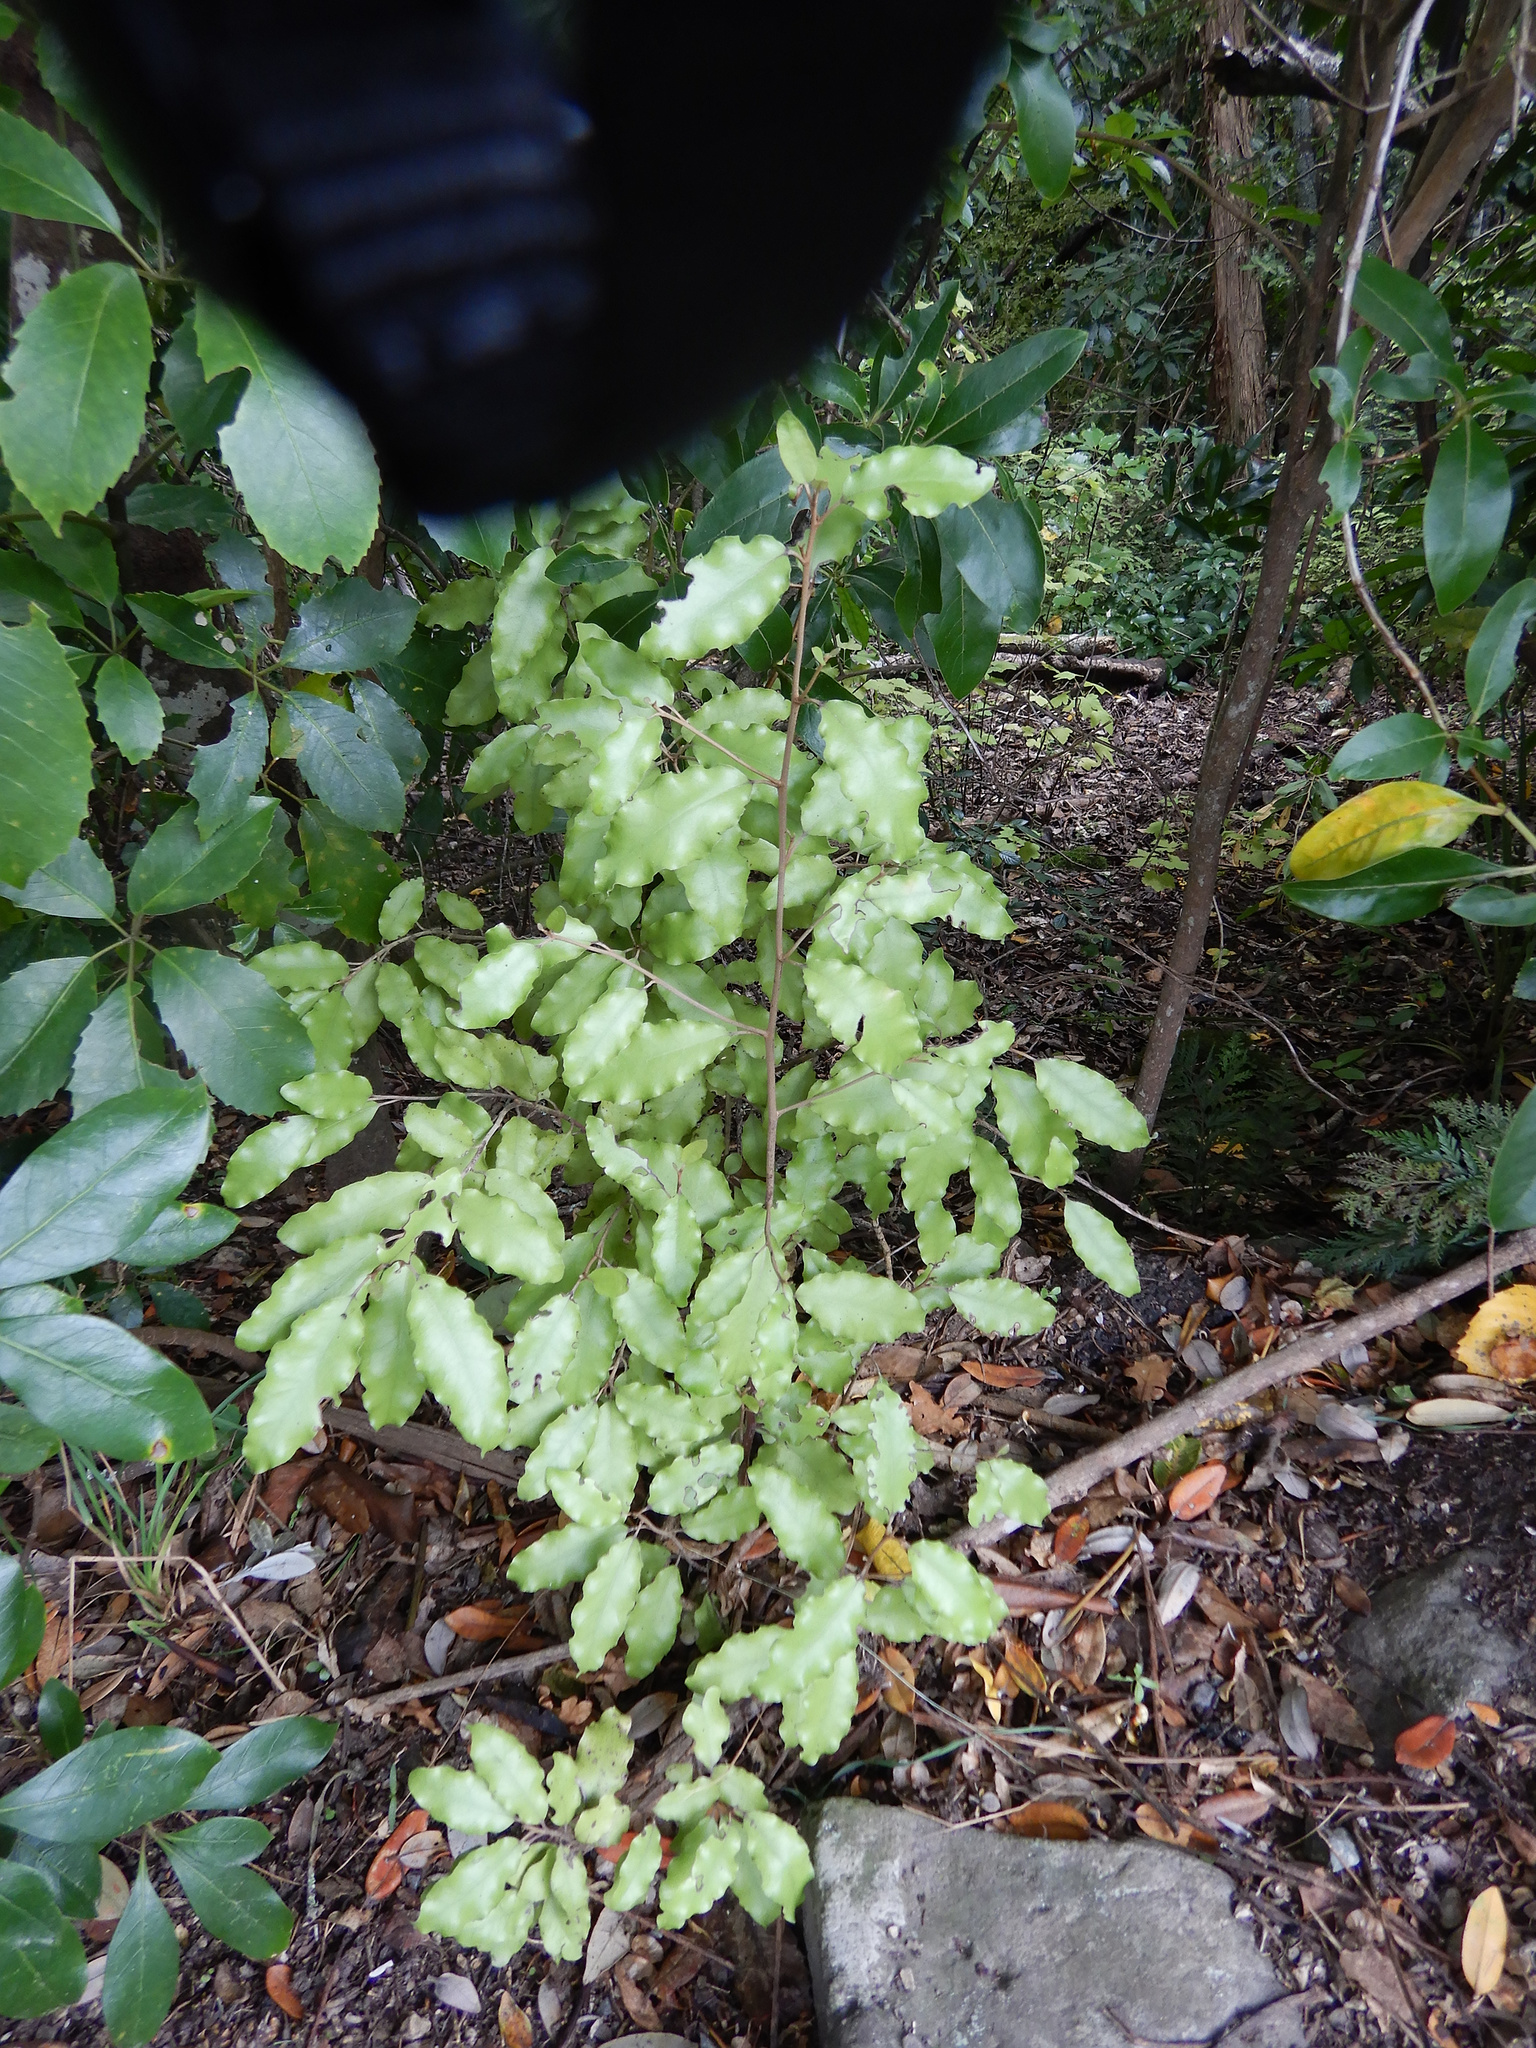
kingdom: Plantae
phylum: Tracheophyta
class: Magnoliopsida
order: Asterales
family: Asteraceae
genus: Olearia
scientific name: Olearia paniculata
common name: Akiraho
